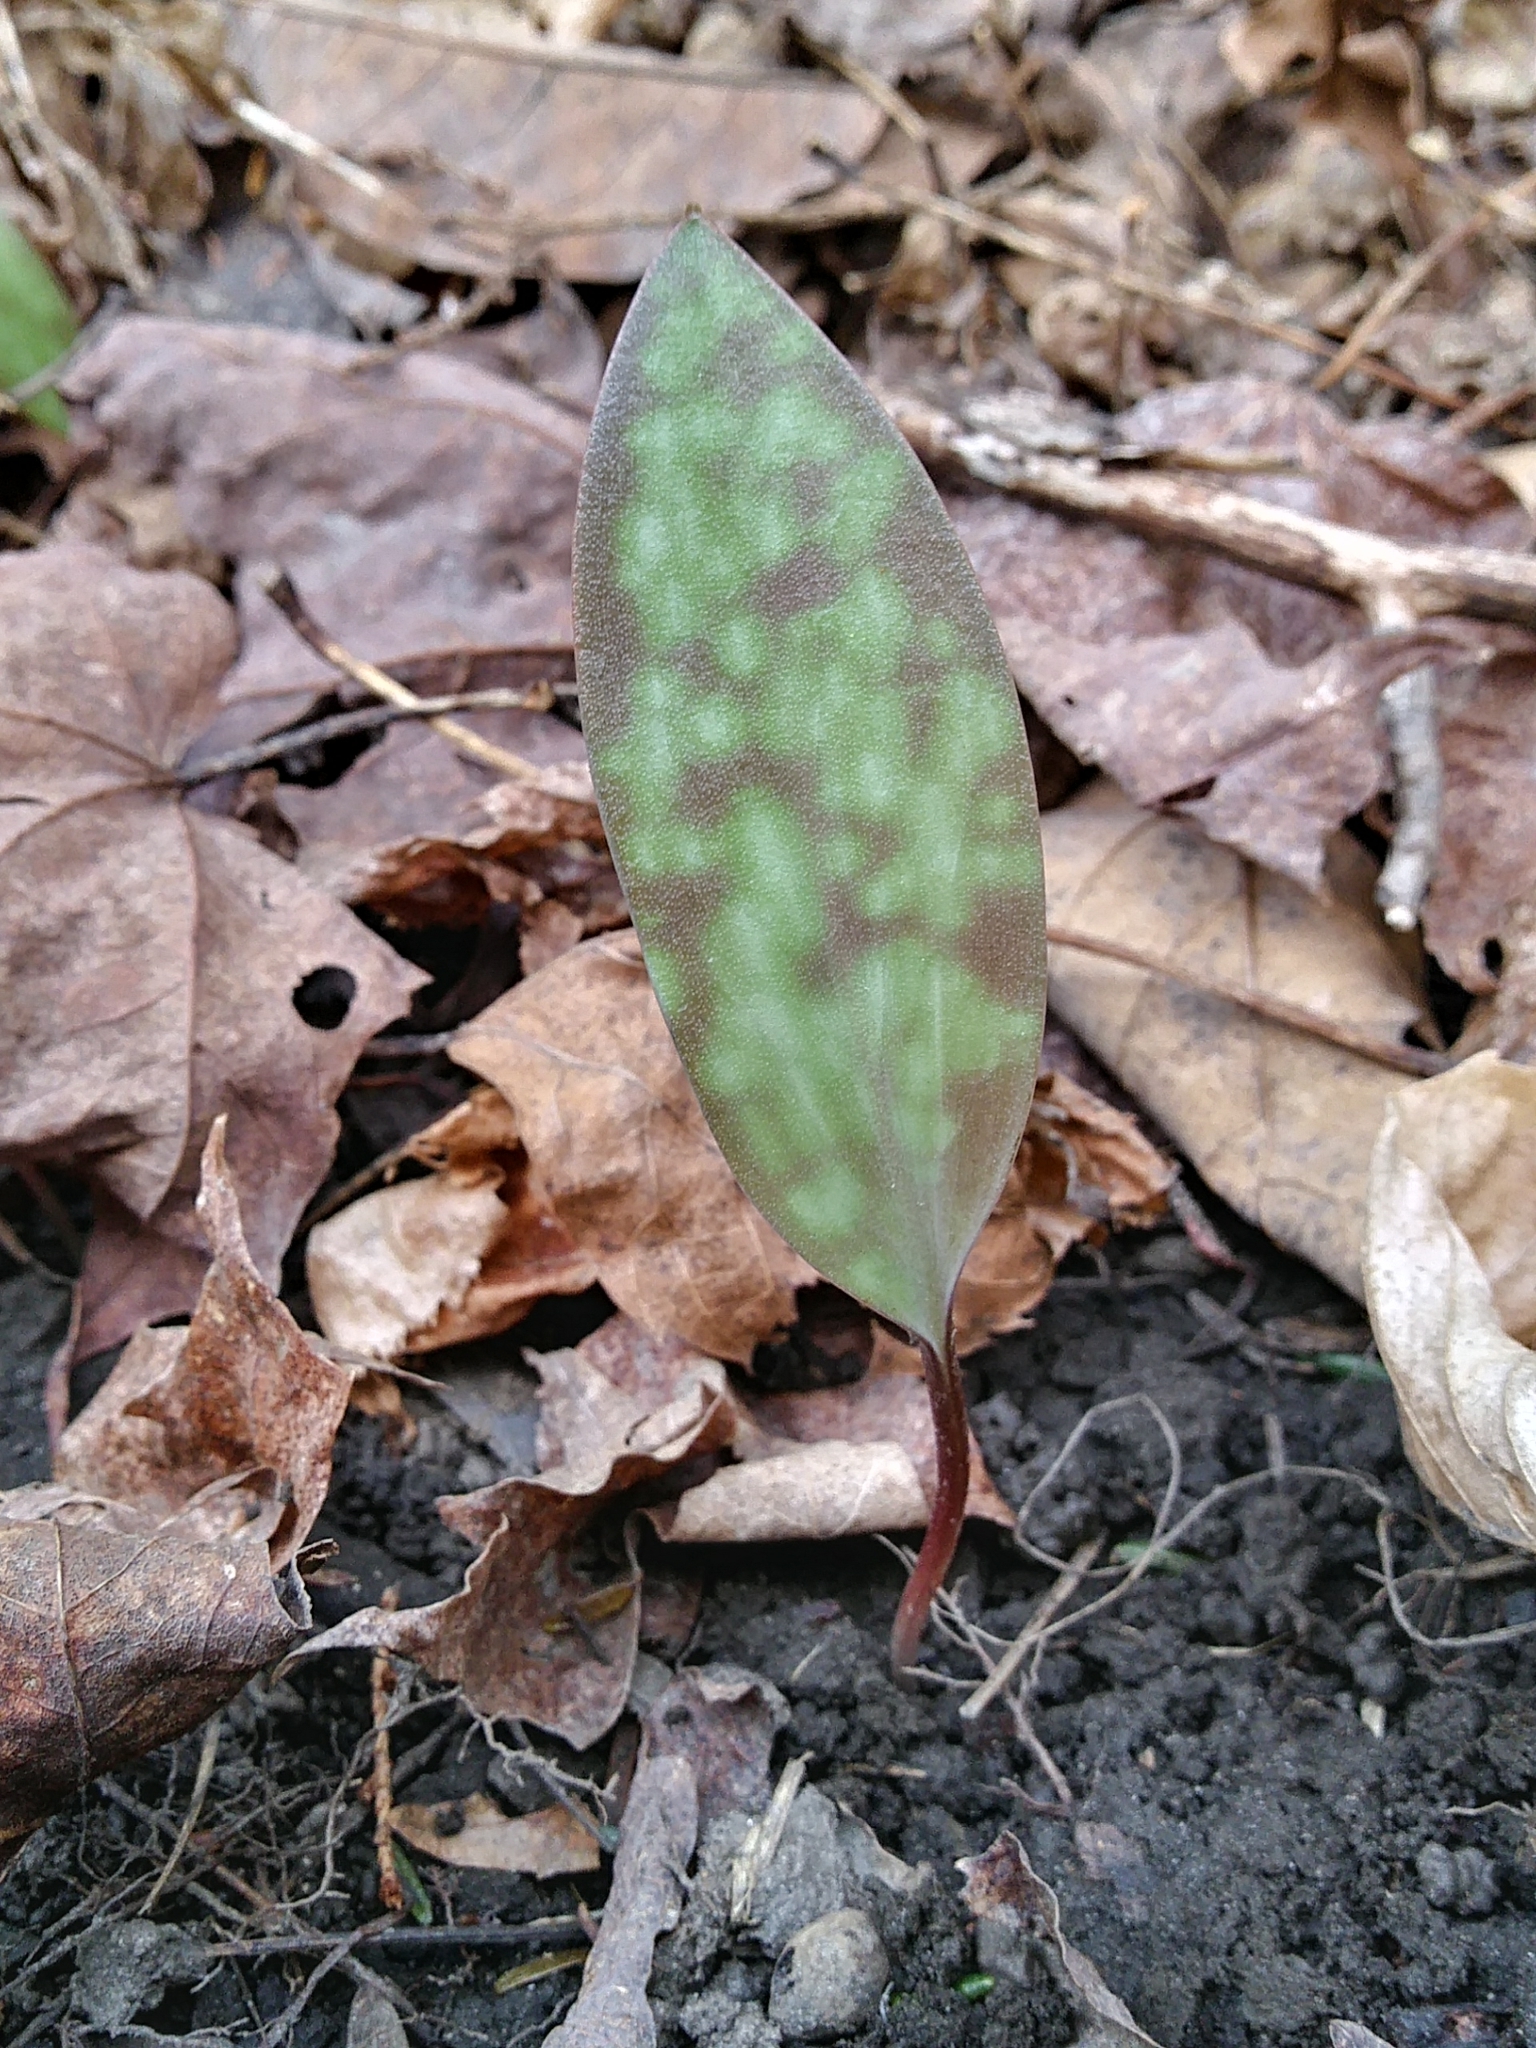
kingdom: Plantae
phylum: Tracheophyta
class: Liliopsida
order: Liliales
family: Liliaceae
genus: Erythronium
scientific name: Erythronium americanum
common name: Yellow adder's-tongue
